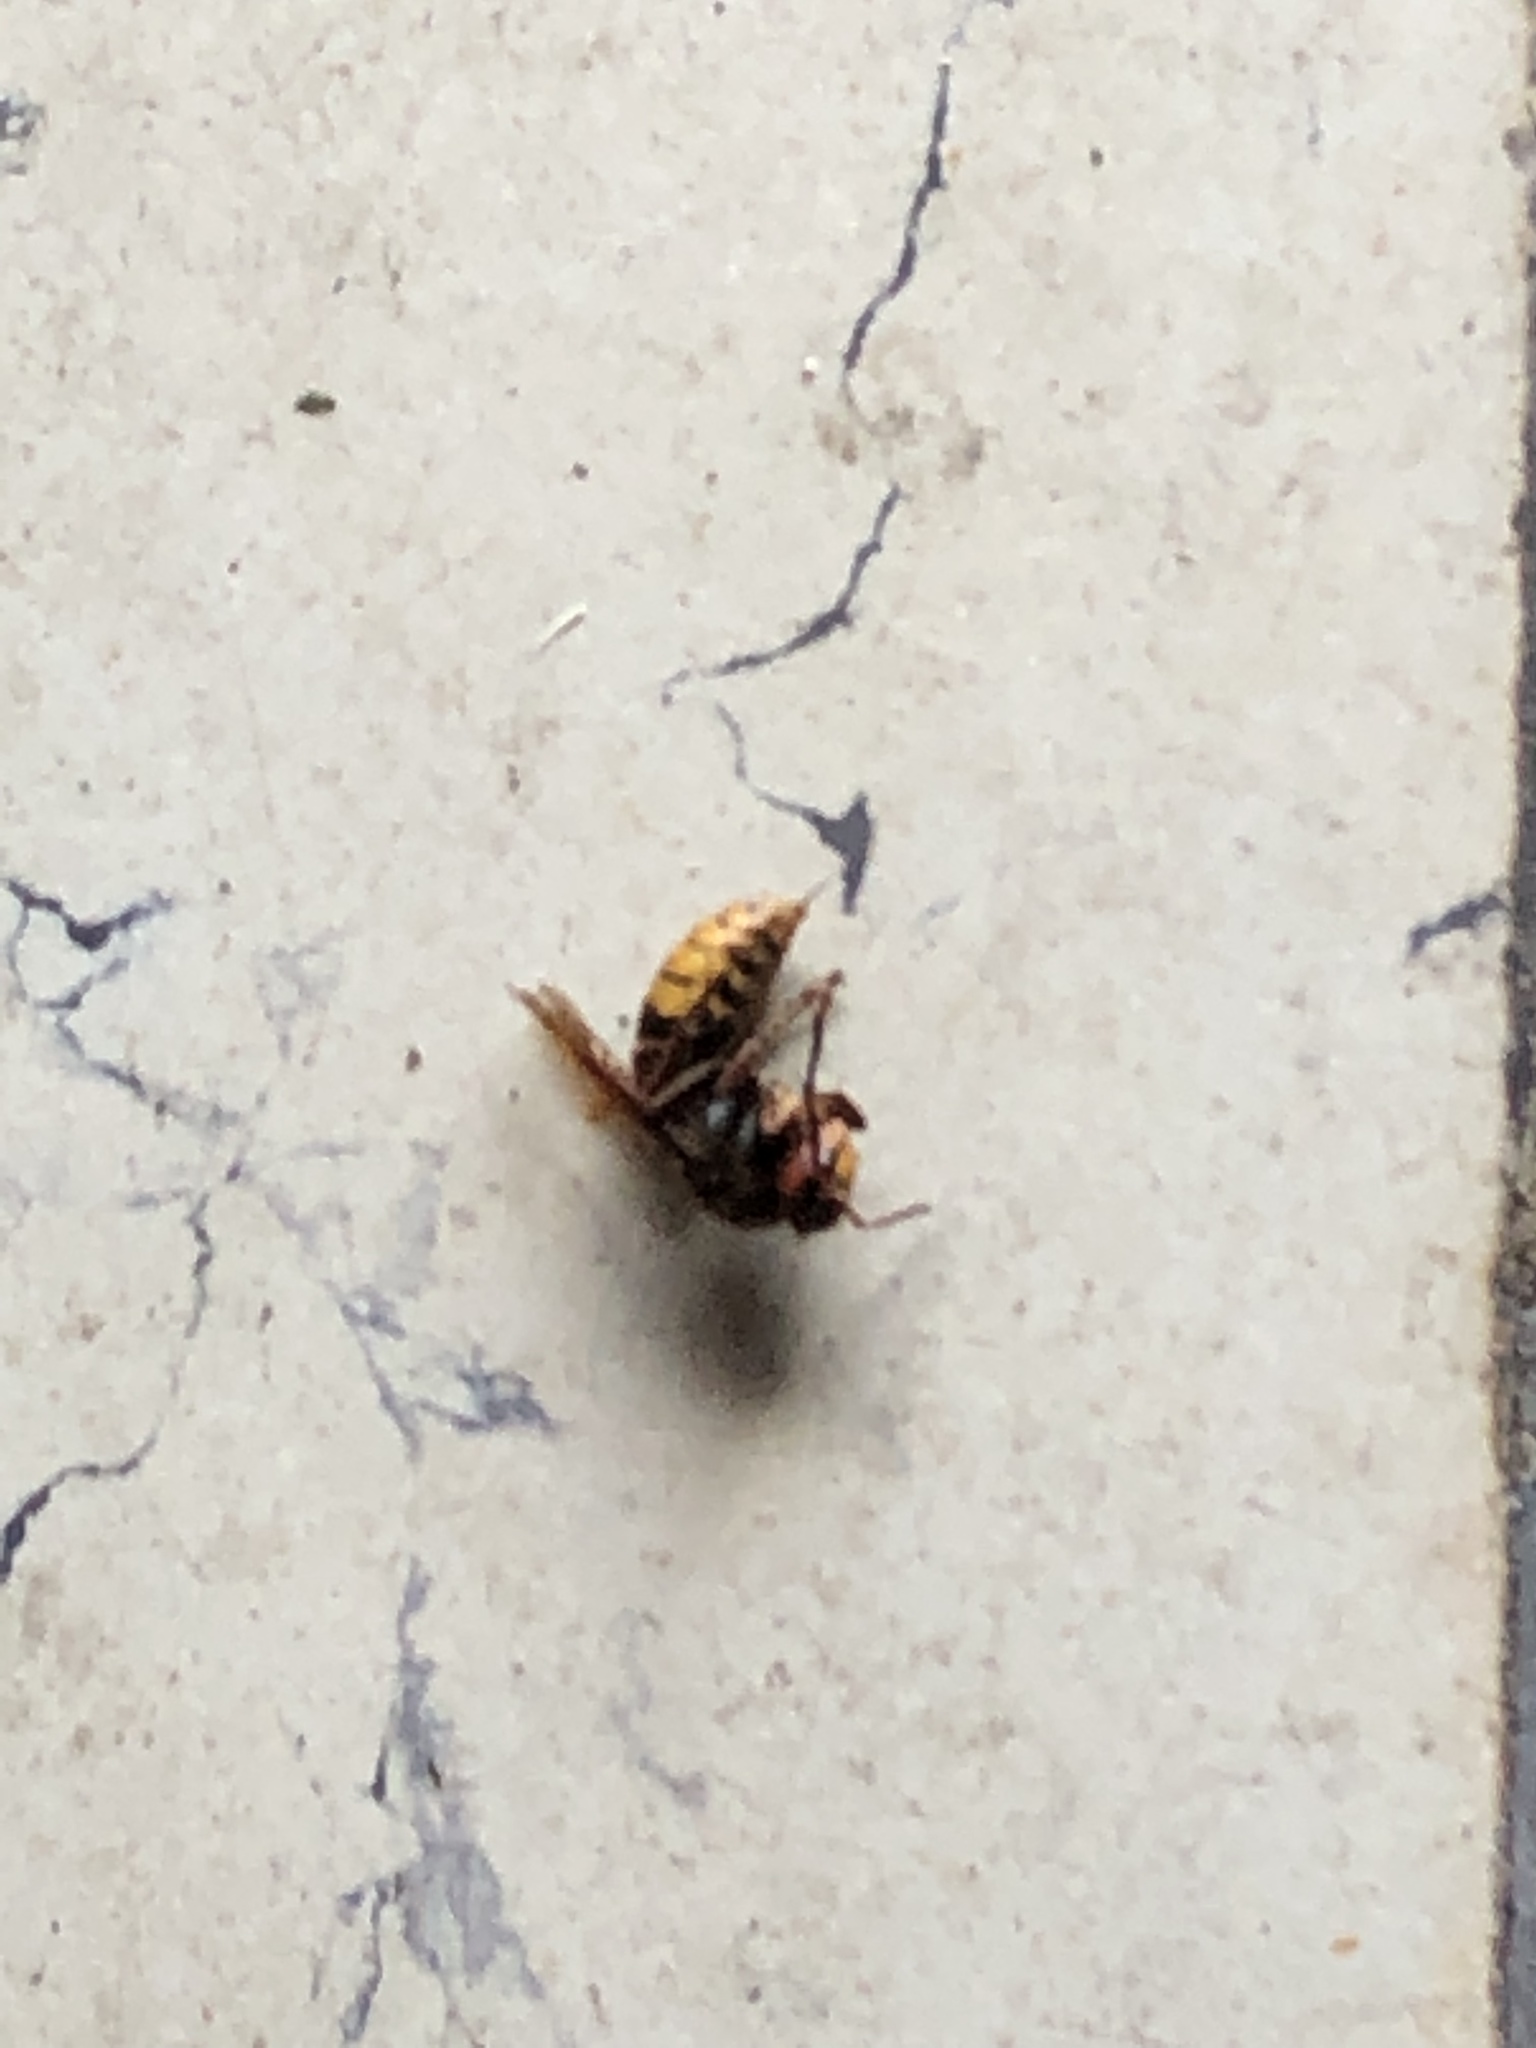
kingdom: Animalia
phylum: Arthropoda
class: Insecta
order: Hymenoptera
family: Vespidae
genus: Vespa
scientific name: Vespa crabro
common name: Hornet
